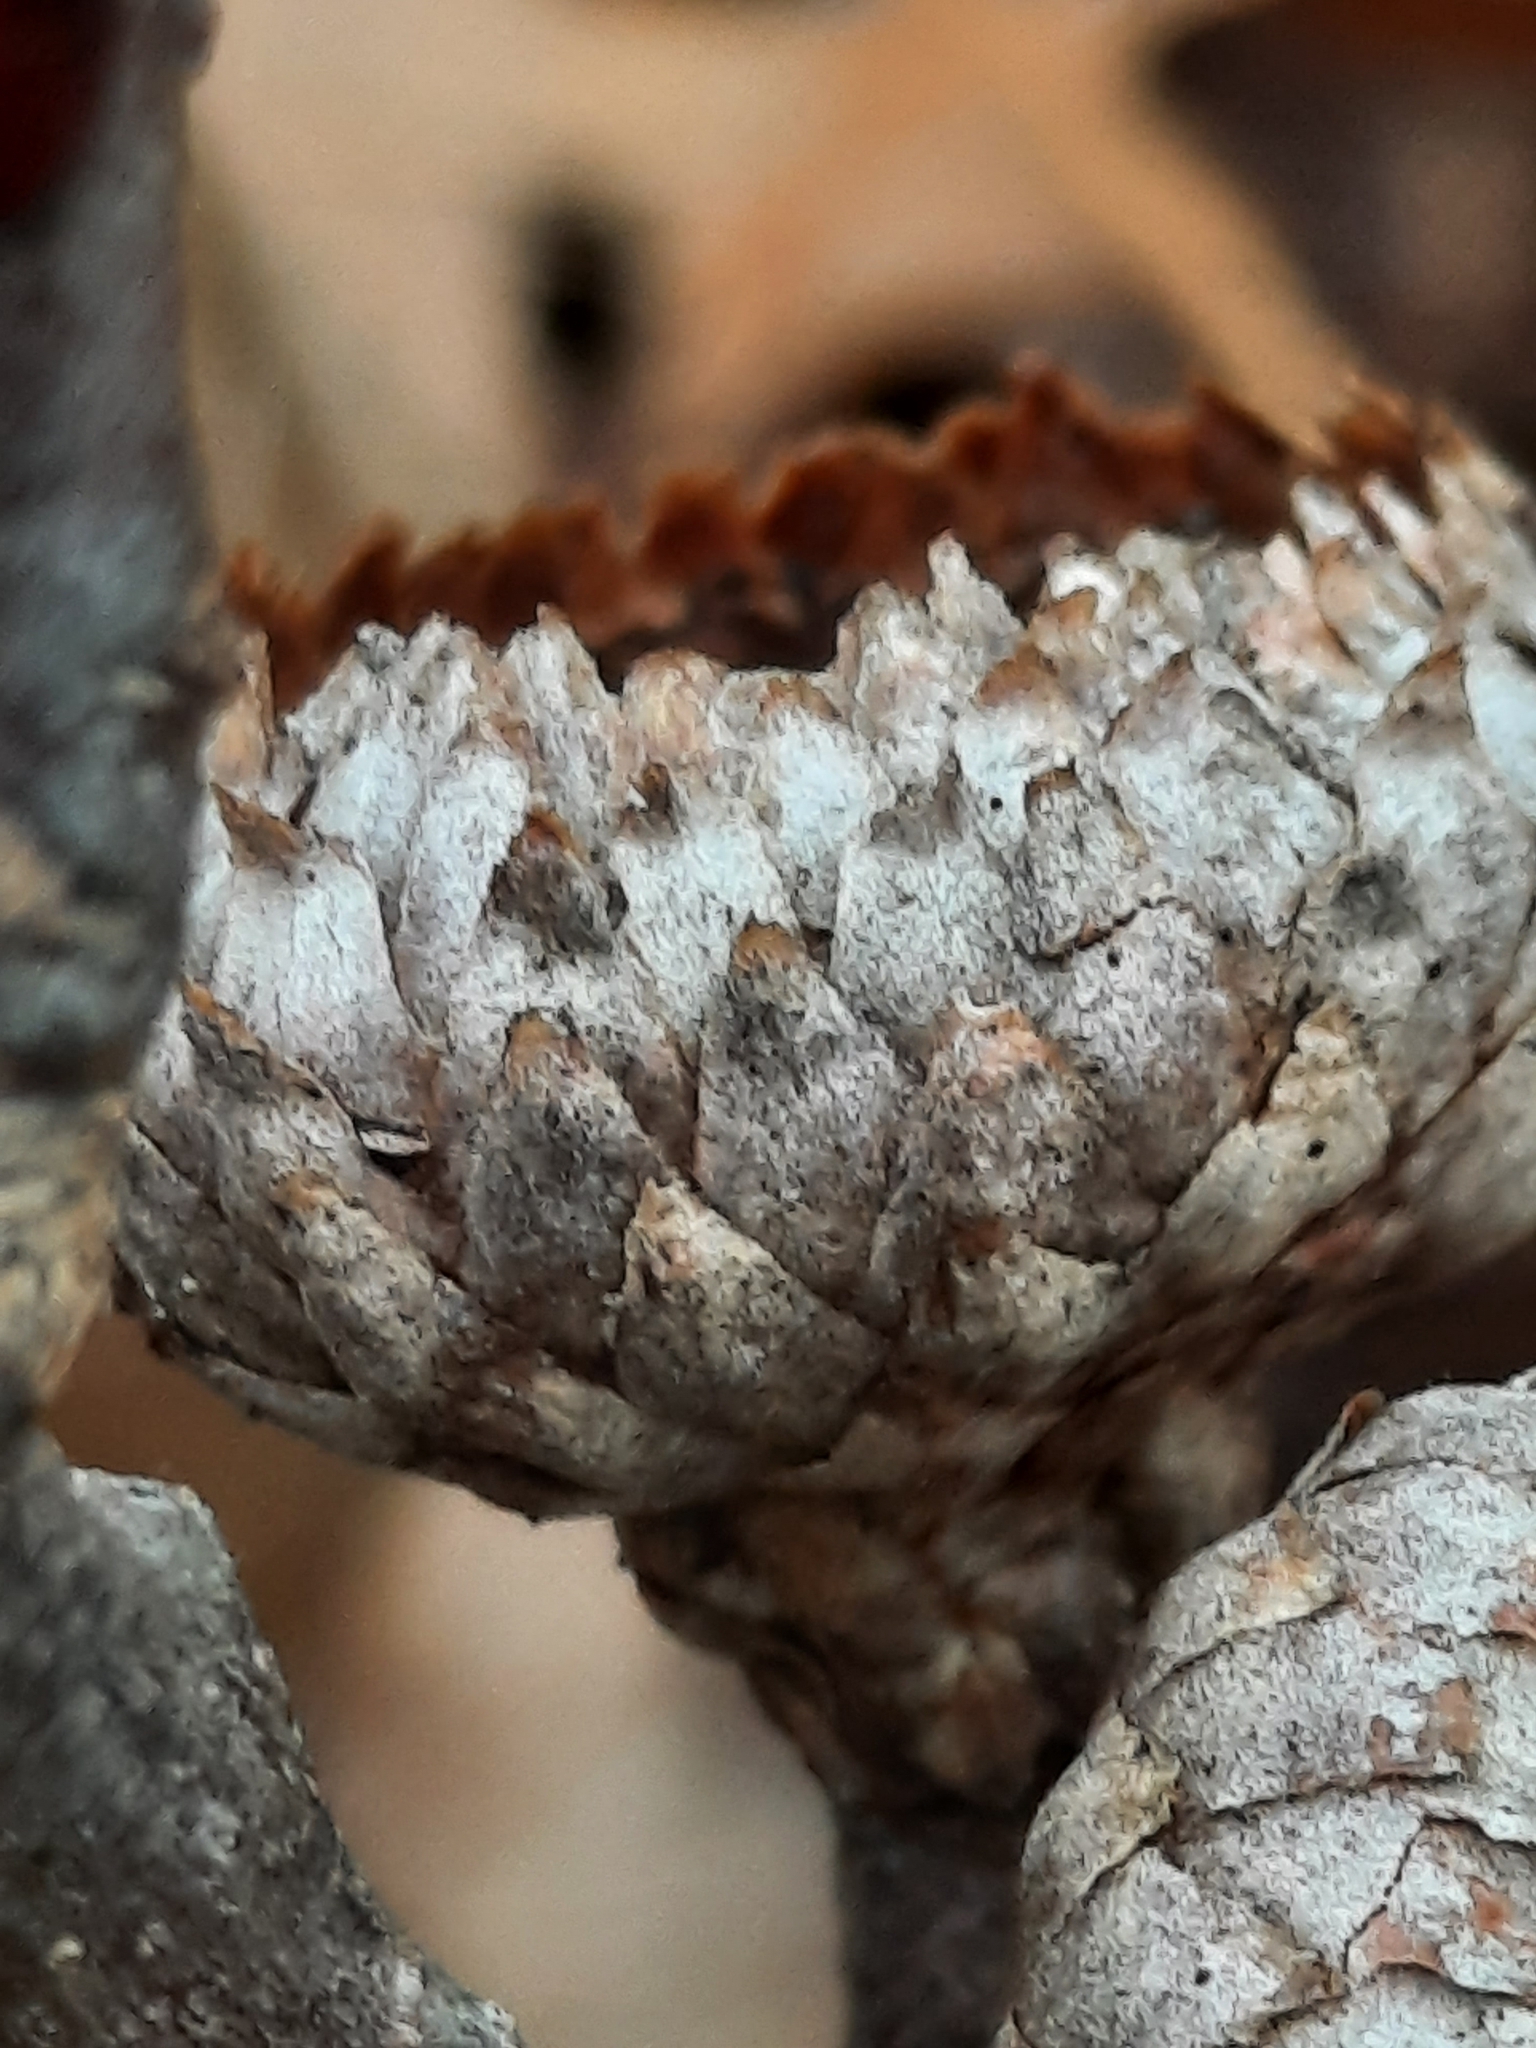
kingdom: Plantae
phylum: Tracheophyta
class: Magnoliopsida
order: Fagales
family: Fagaceae
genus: Quercus
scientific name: Quercus velutina
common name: Black oak
